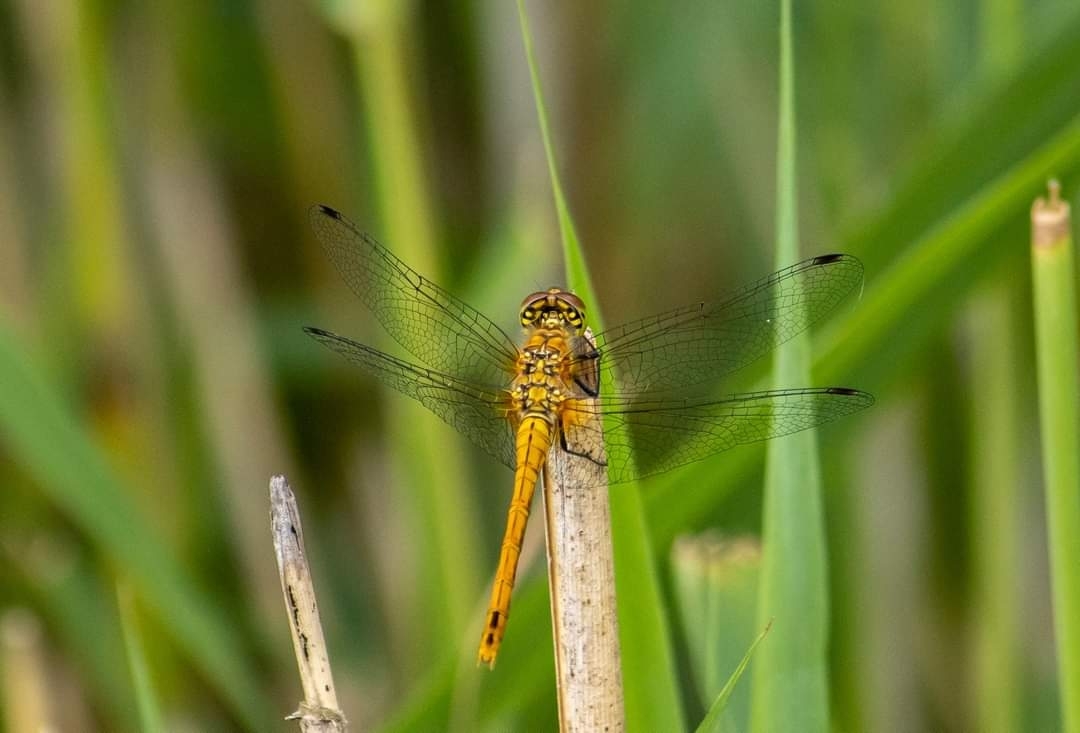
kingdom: Animalia
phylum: Arthropoda
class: Insecta
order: Odonata
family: Libellulidae
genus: Sympetrum
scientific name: Sympetrum sanguineum
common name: Ruddy darter
